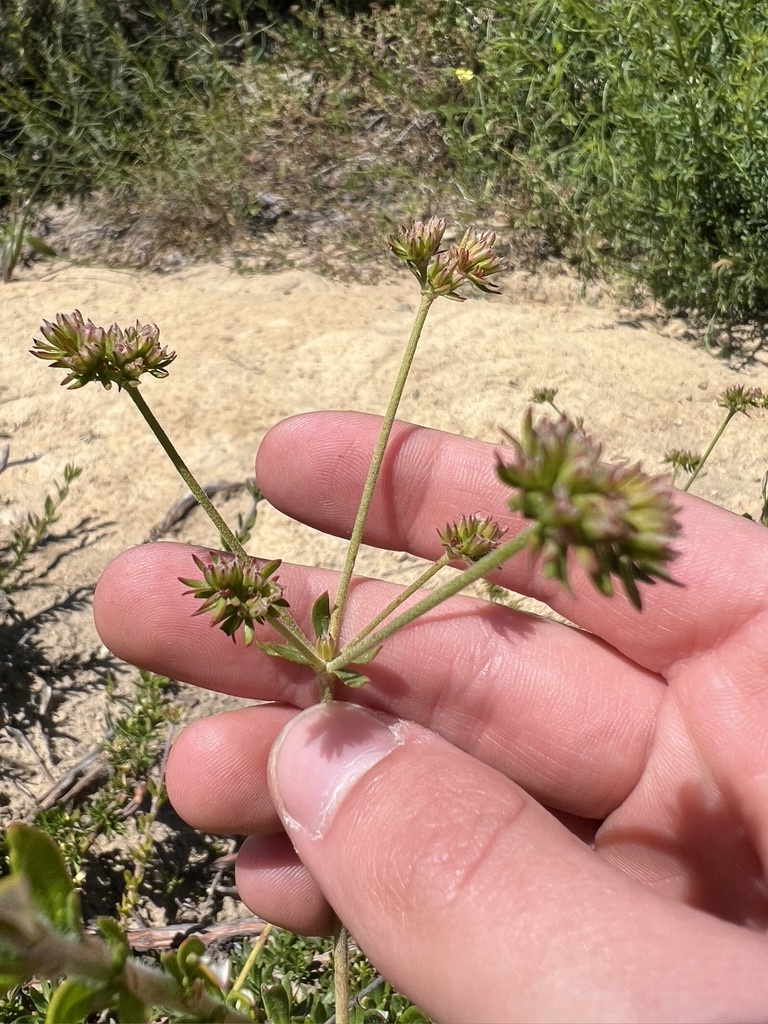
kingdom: Plantae
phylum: Tracheophyta
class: Magnoliopsida
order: Caryophyllales
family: Polygonaceae
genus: Eriogonum
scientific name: Eriogonum fasciculatum
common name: California wild buckwheat
